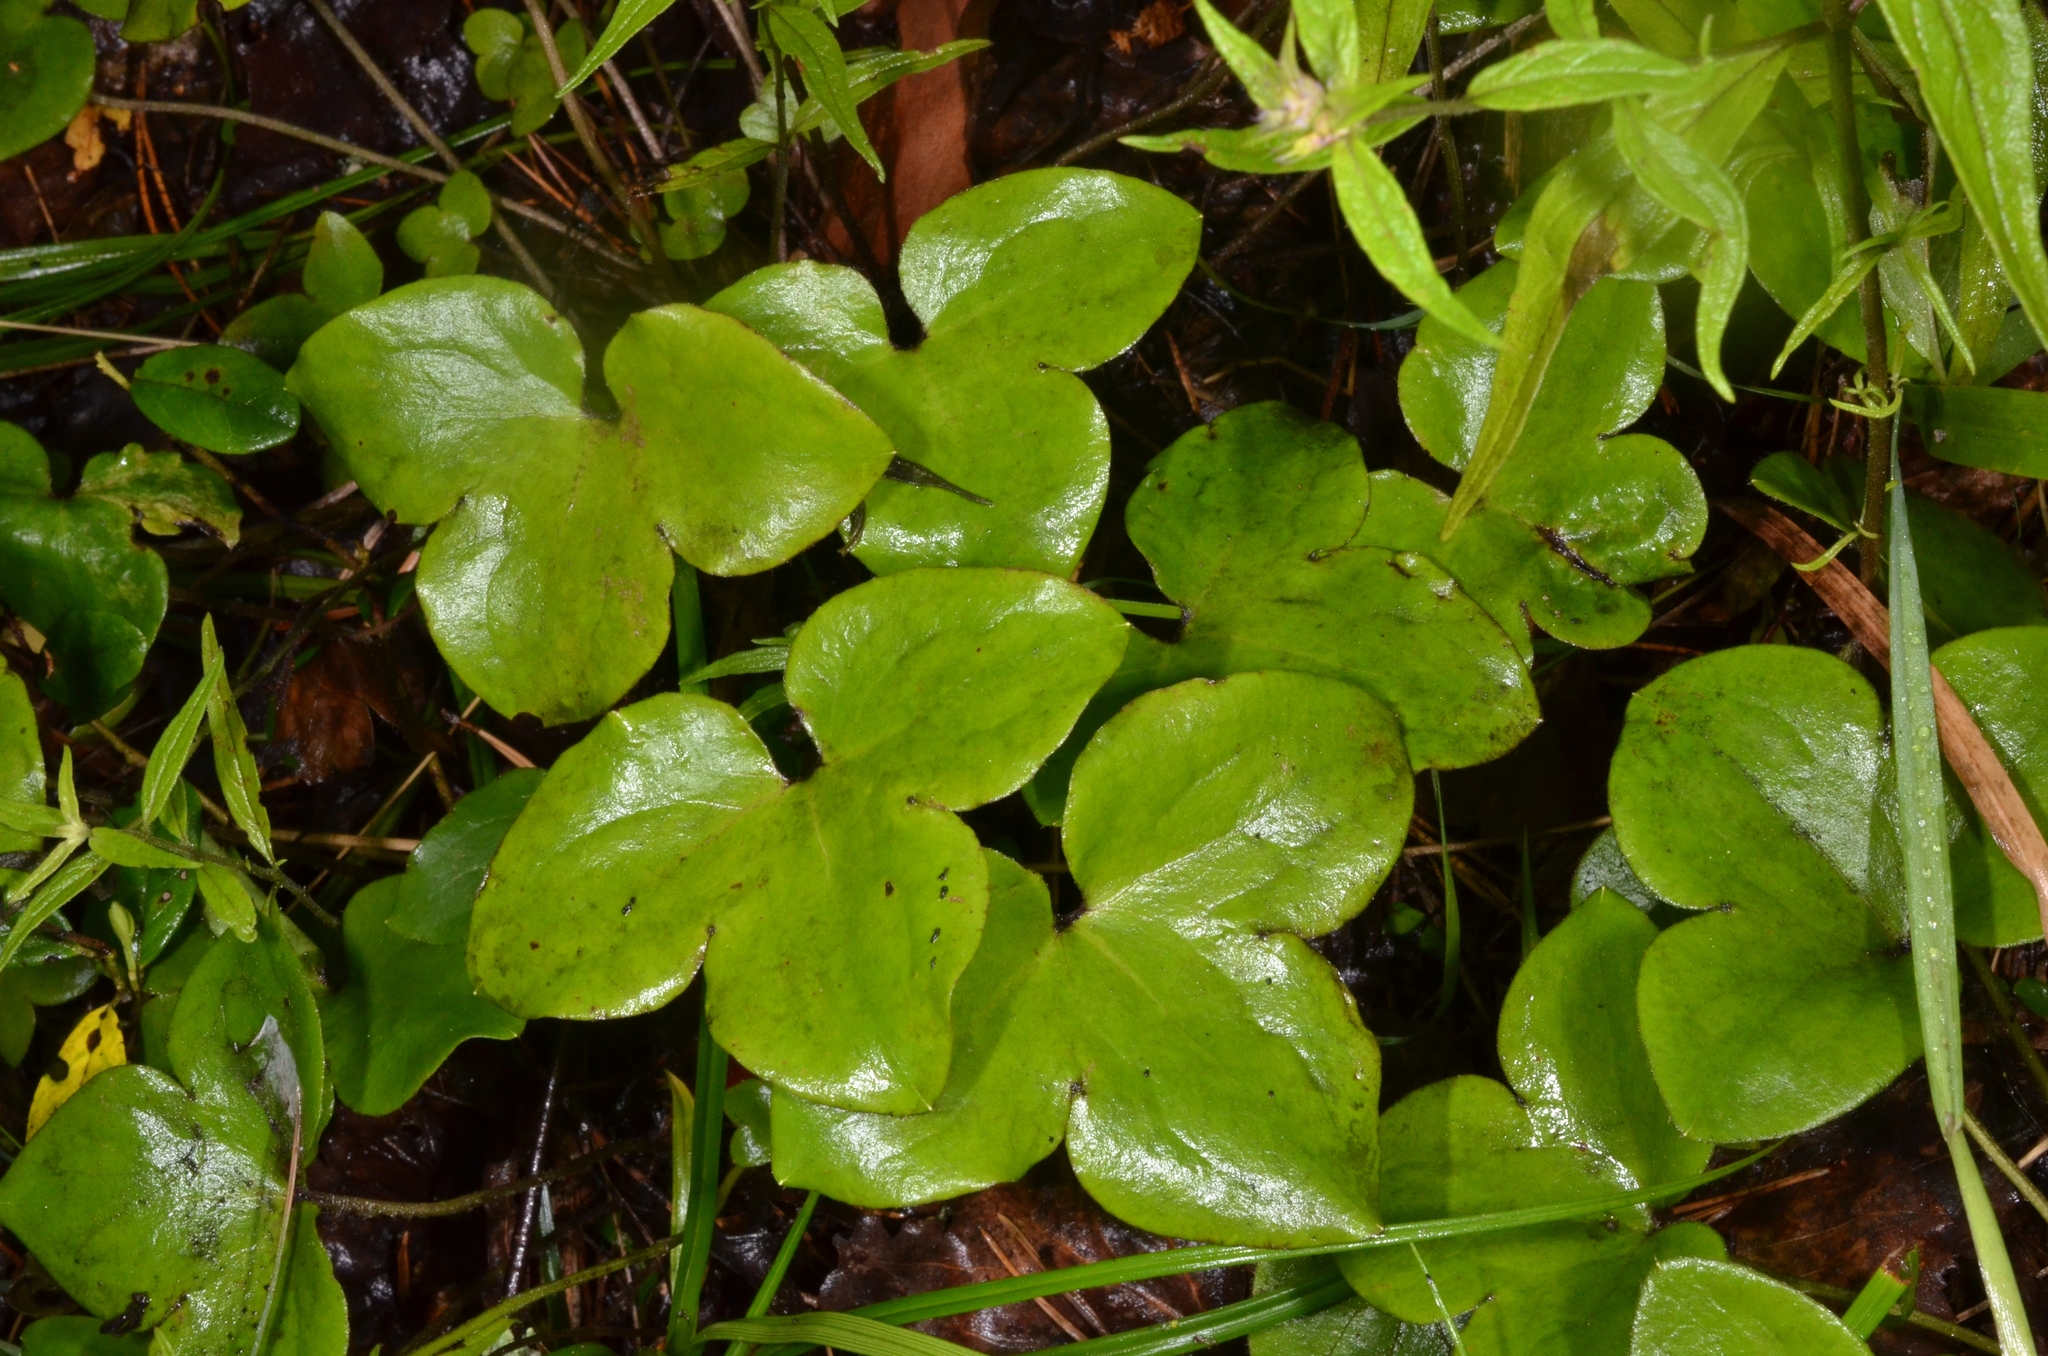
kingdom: Plantae
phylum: Tracheophyta
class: Magnoliopsida
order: Ranunculales
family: Ranunculaceae
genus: Hepatica
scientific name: Hepatica nobilis
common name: Liverleaf
